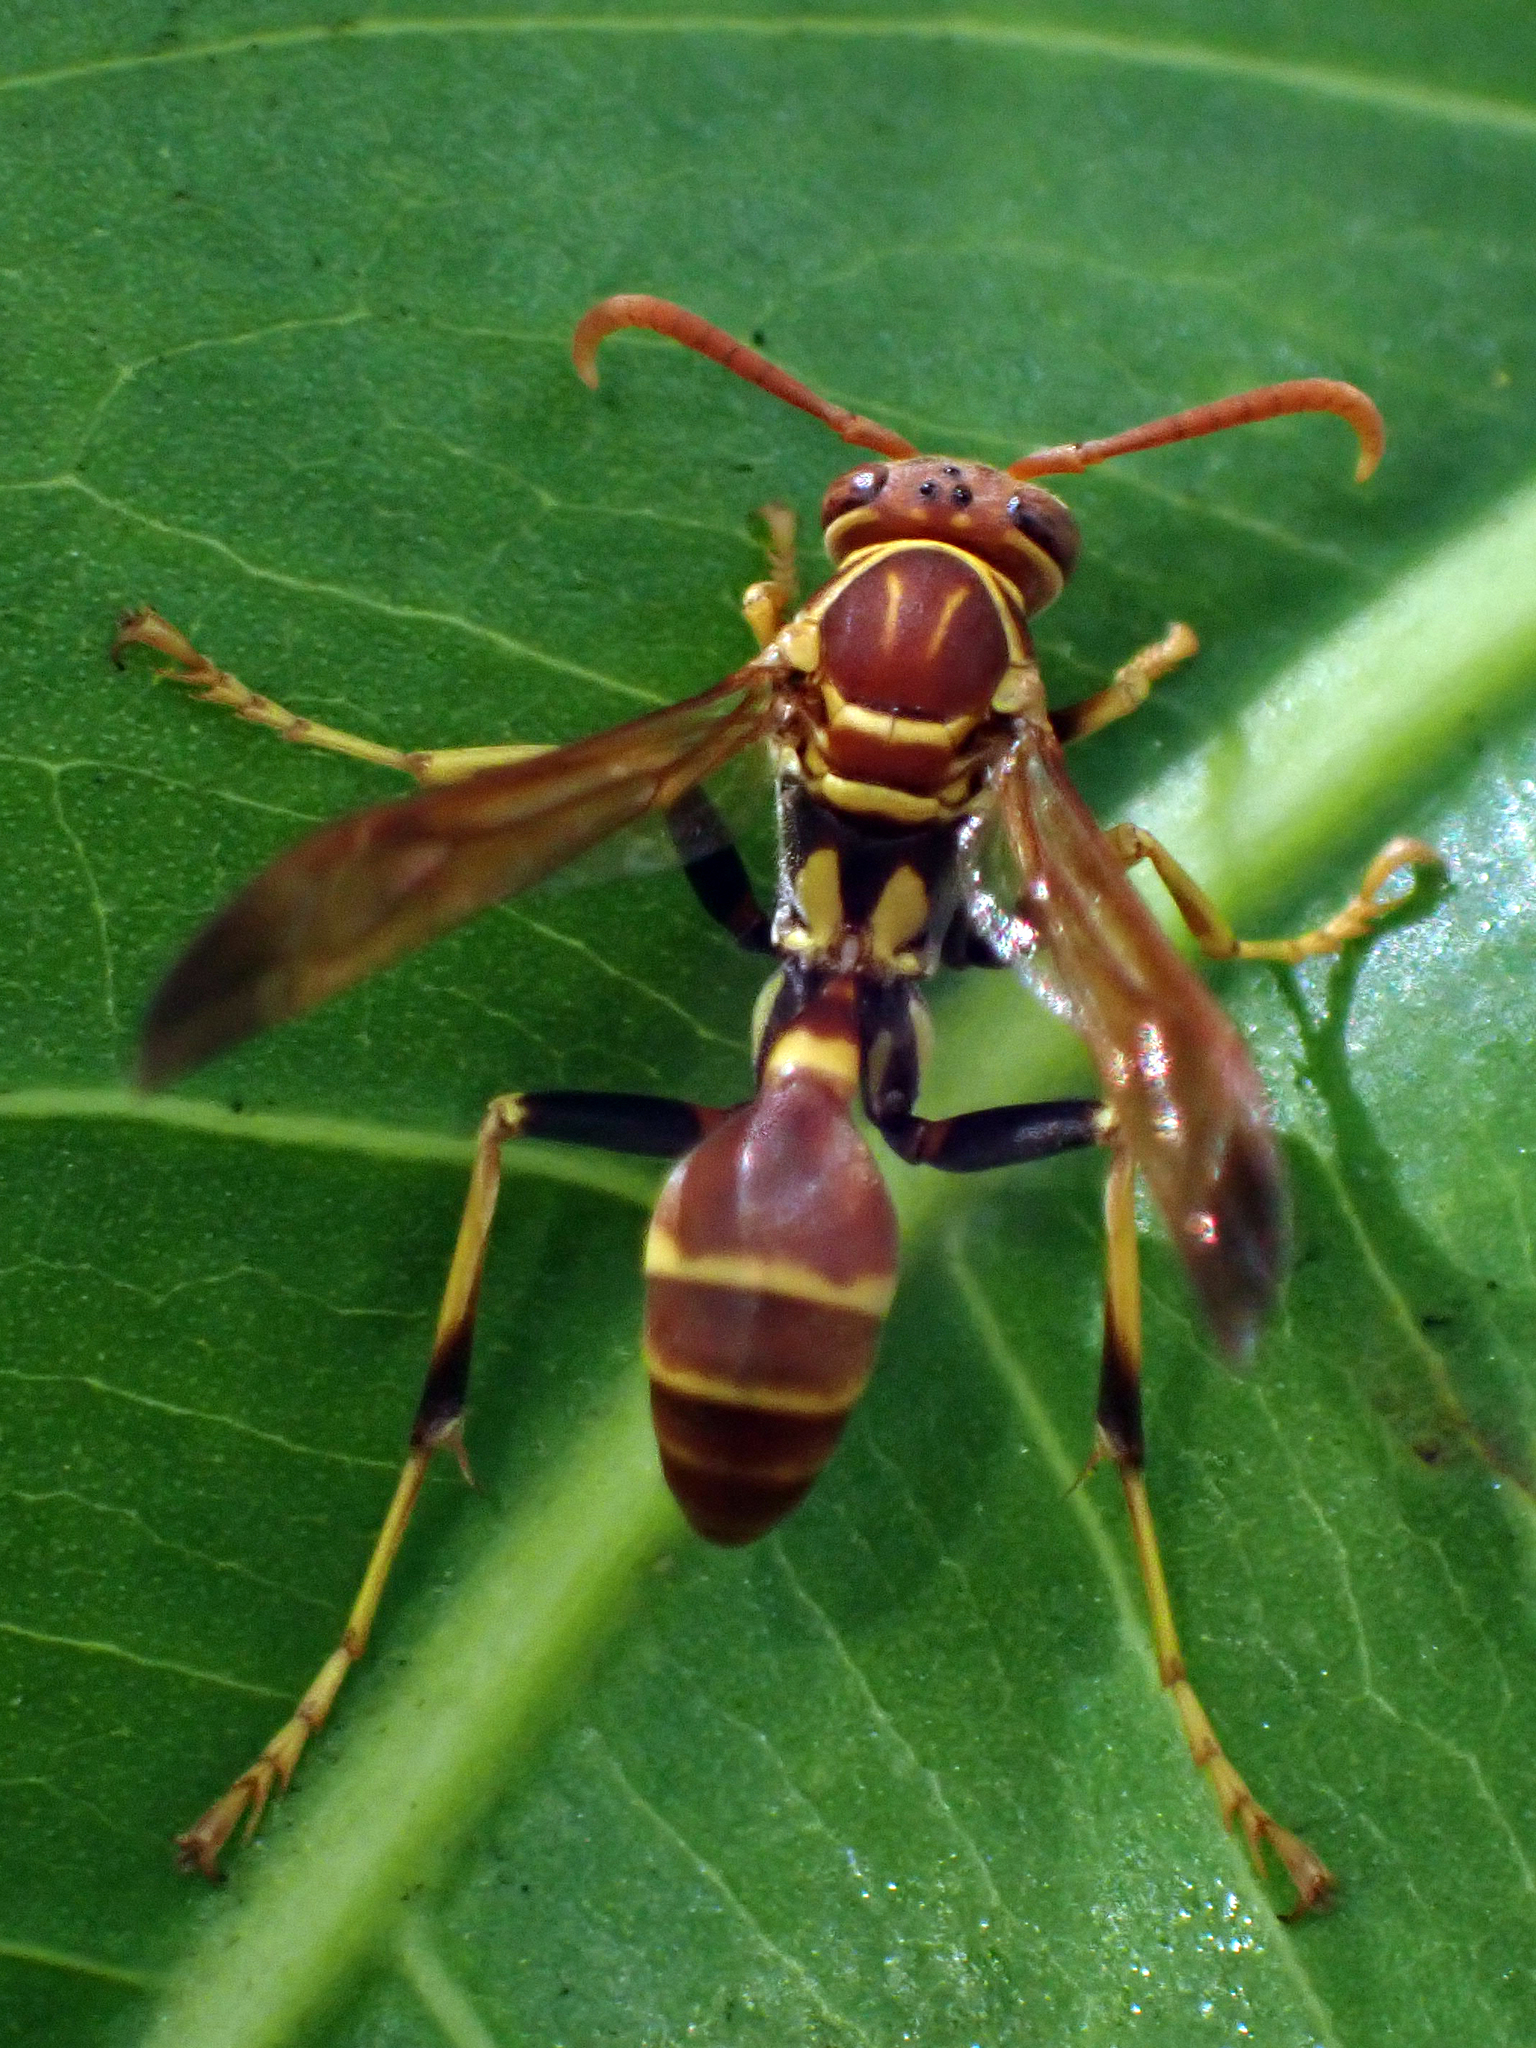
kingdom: Animalia
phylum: Arthropoda
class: Insecta
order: Hymenoptera
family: Vespidae
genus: Mischocyttarus
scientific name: Mischocyttarus mexicanus
